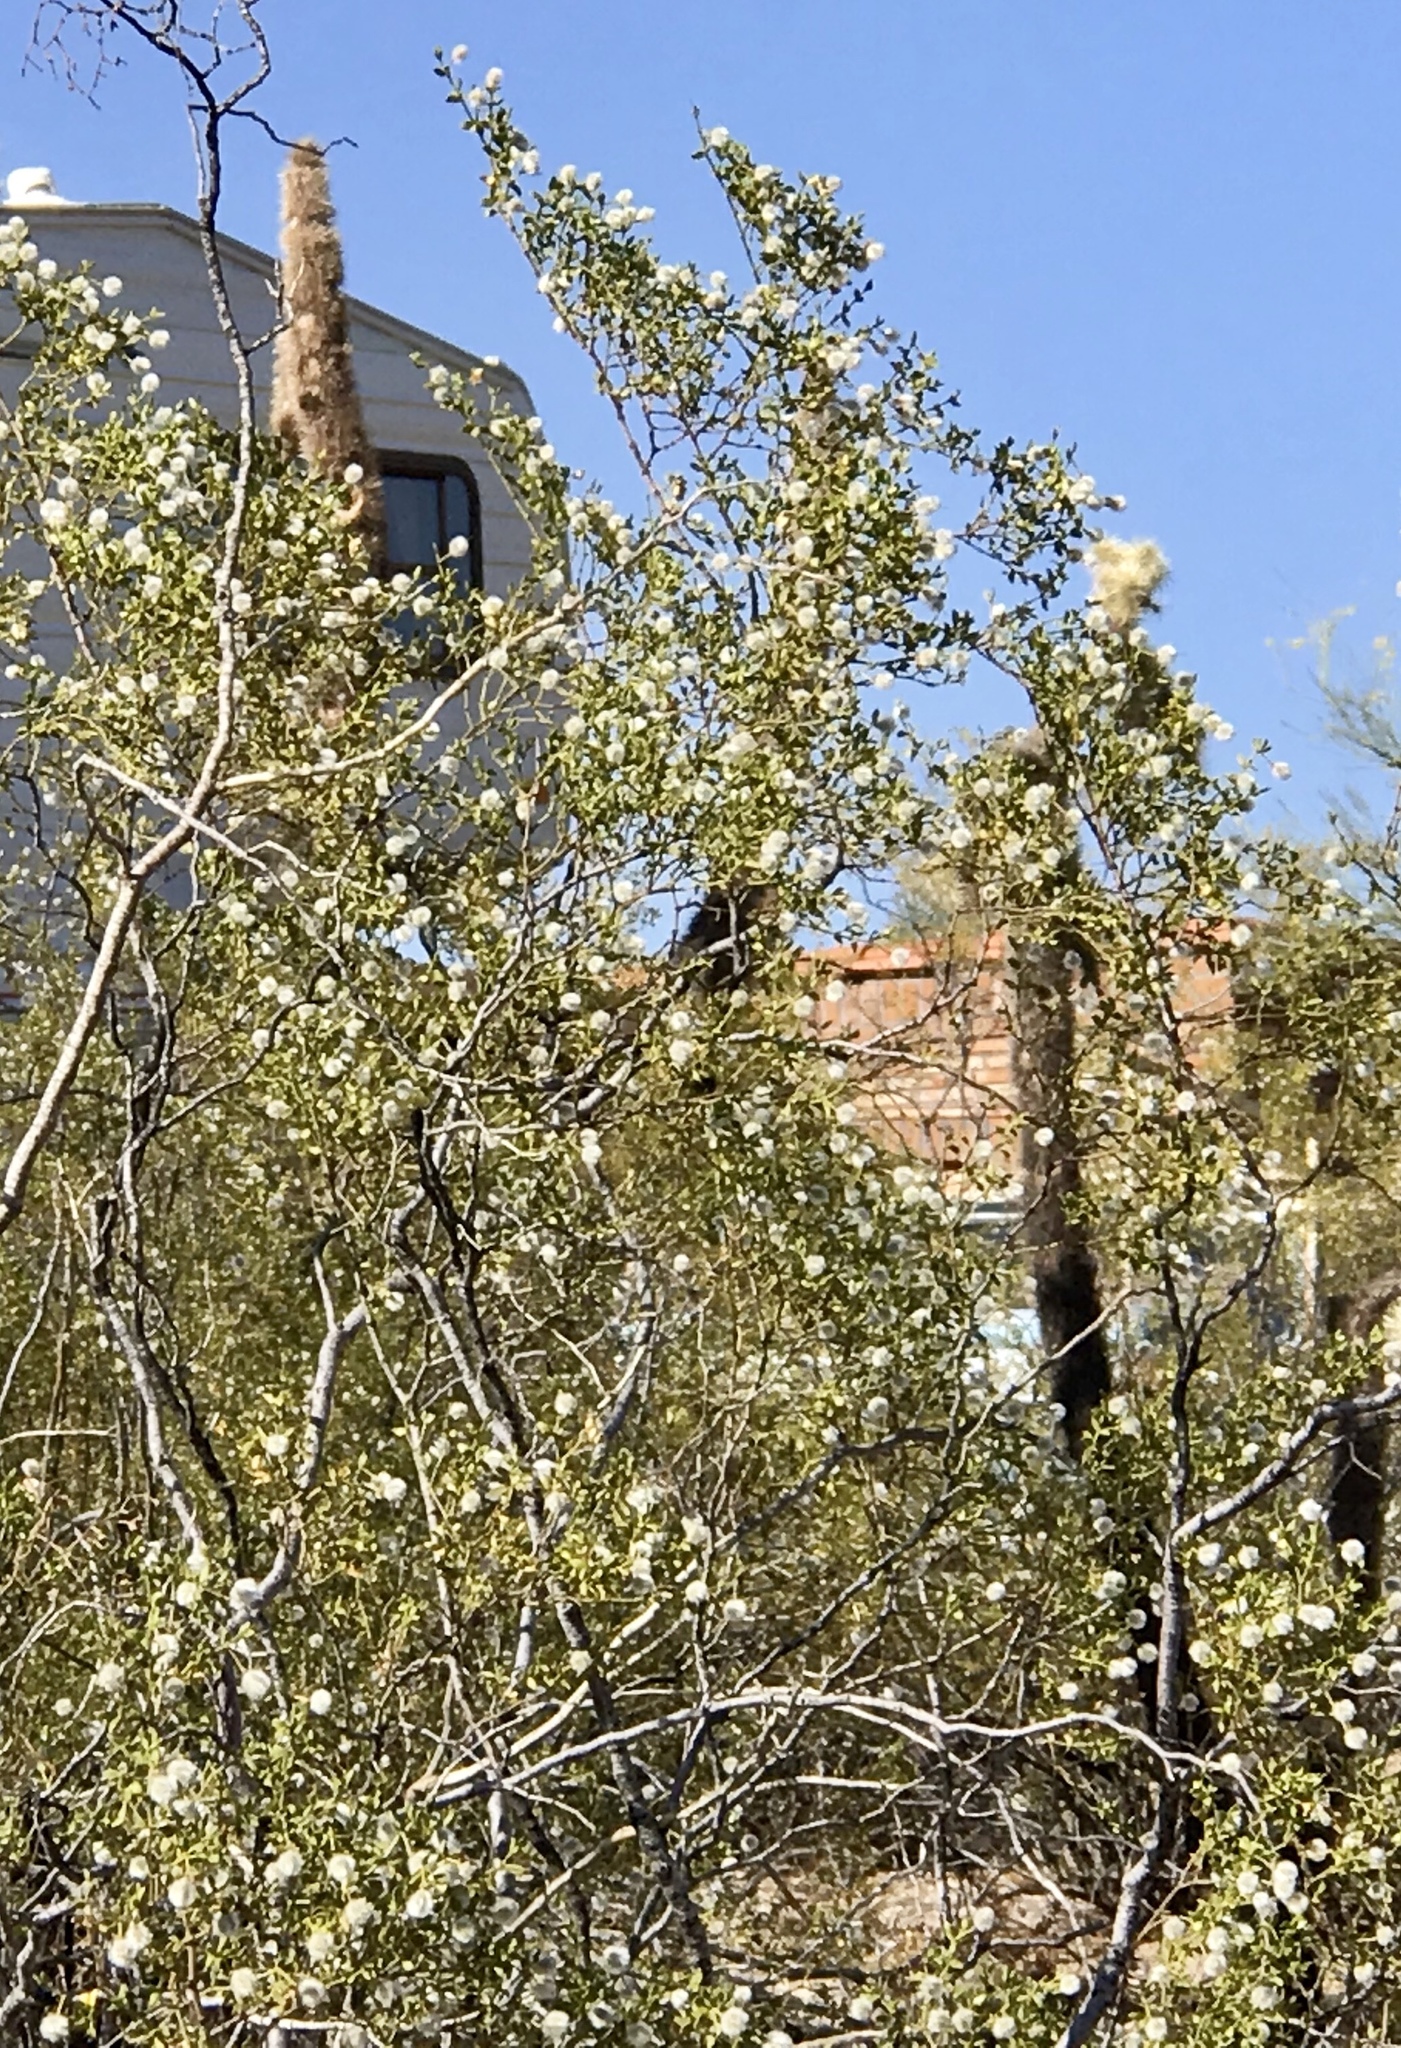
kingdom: Plantae
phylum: Tracheophyta
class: Magnoliopsida
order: Zygophyllales
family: Zygophyllaceae
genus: Larrea
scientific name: Larrea tridentata
